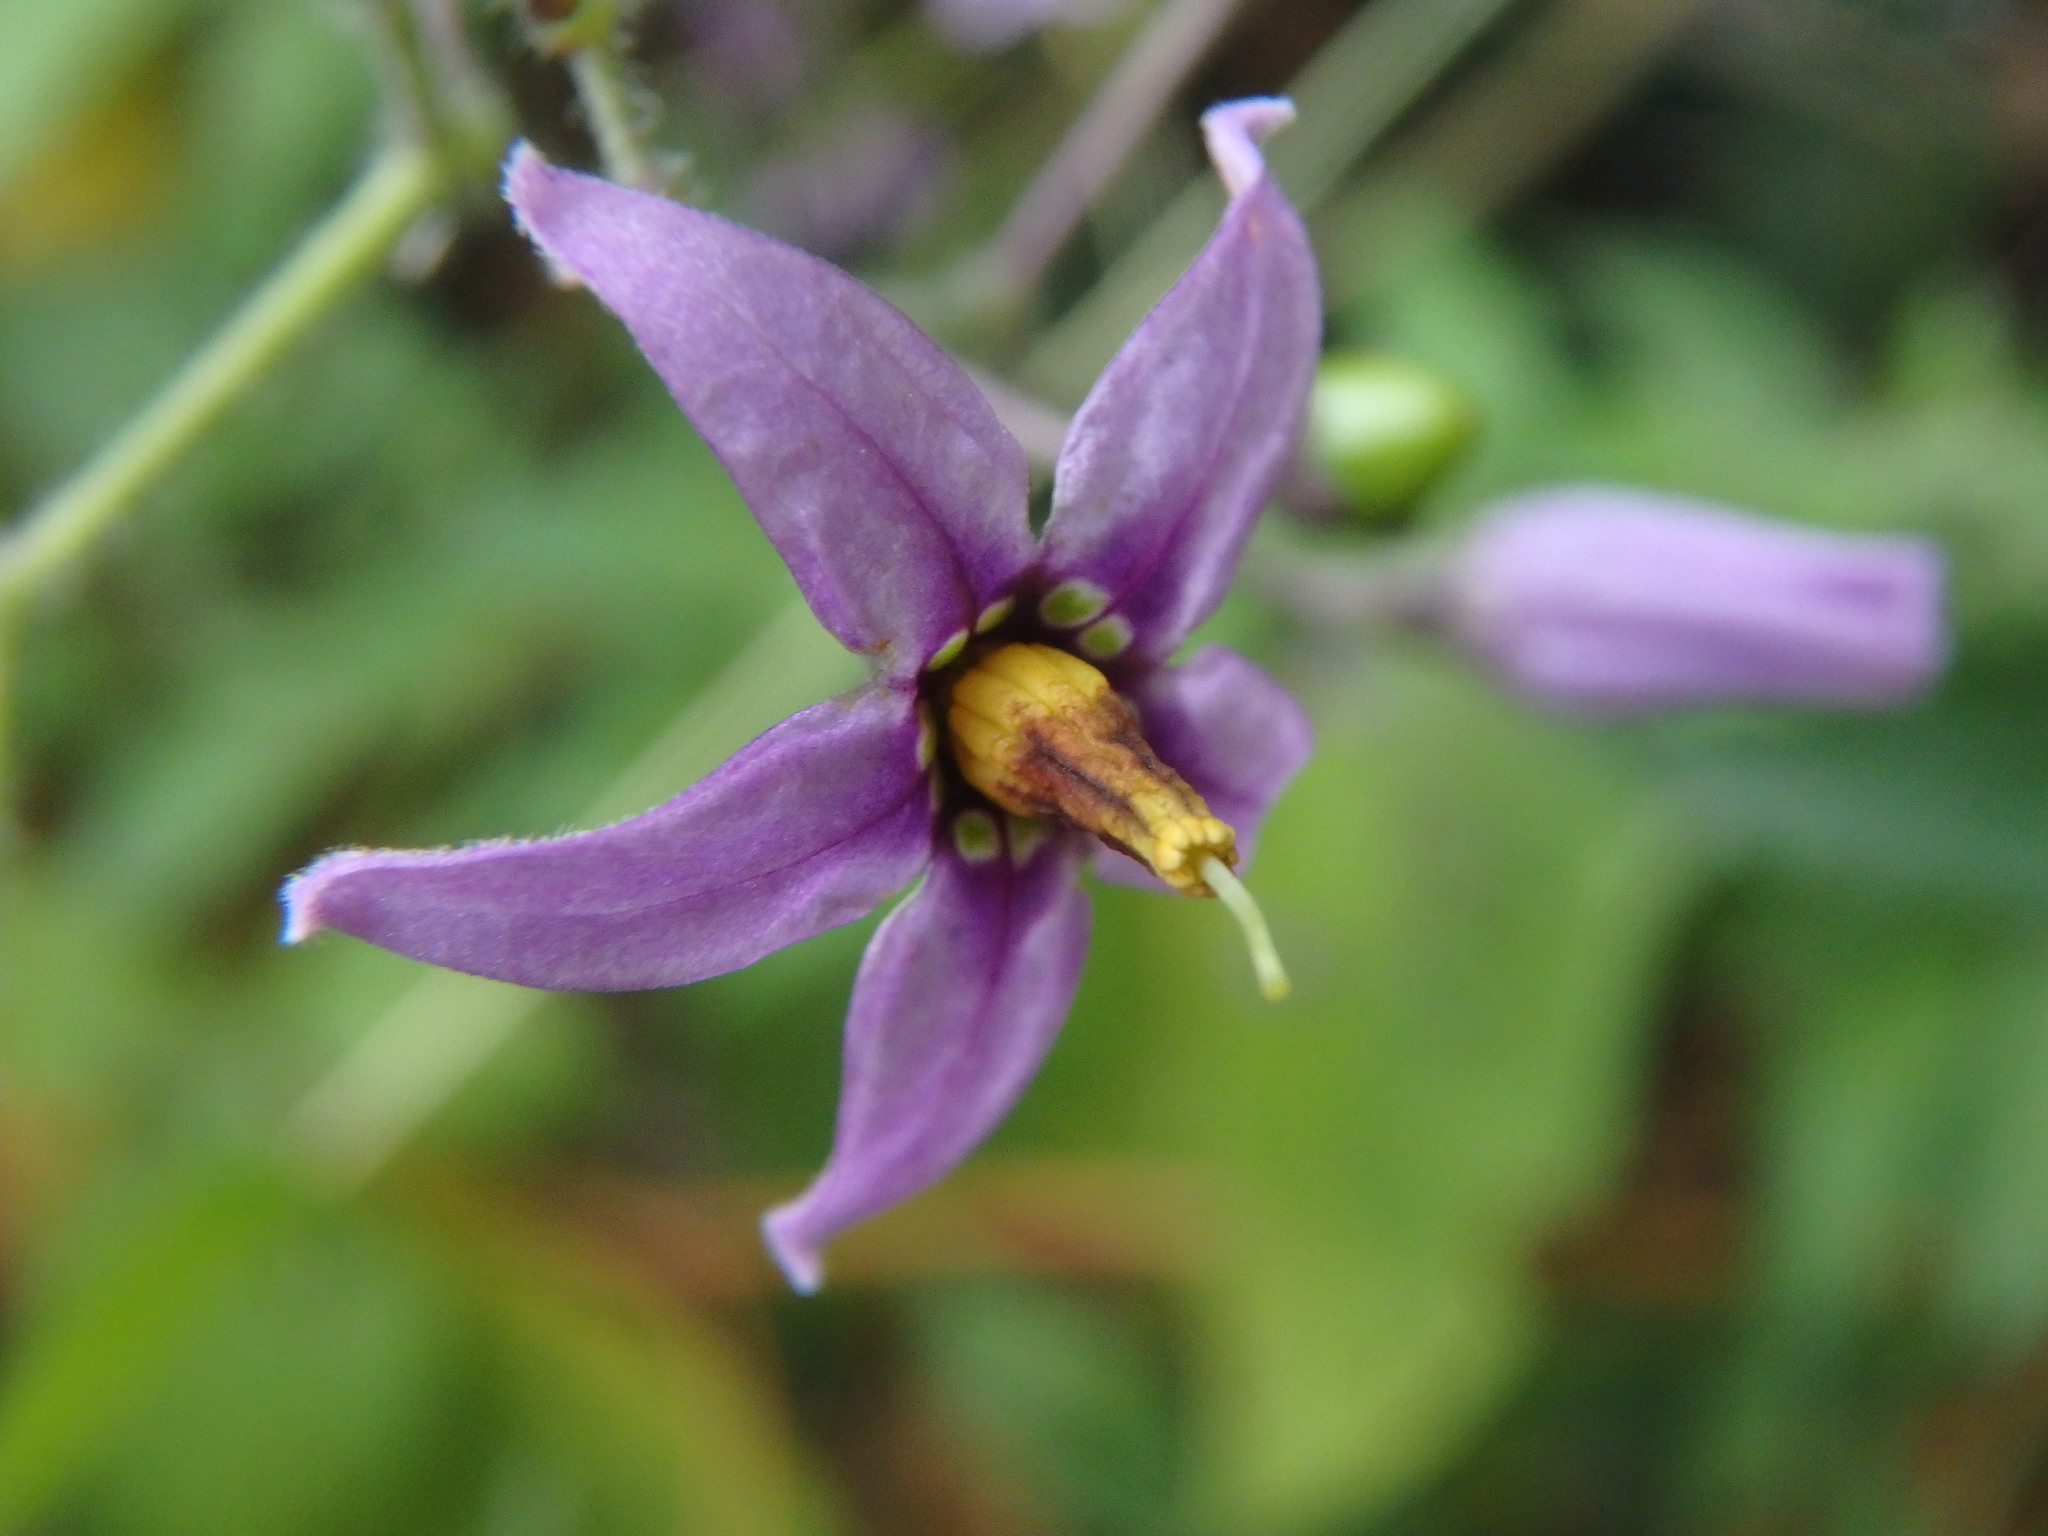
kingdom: Plantae
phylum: Tracheophyta
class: Magnoliopsida
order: Solanales
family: Solanaceae
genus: Solanum
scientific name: Solanum dulcamara
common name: Climbing nightshade
